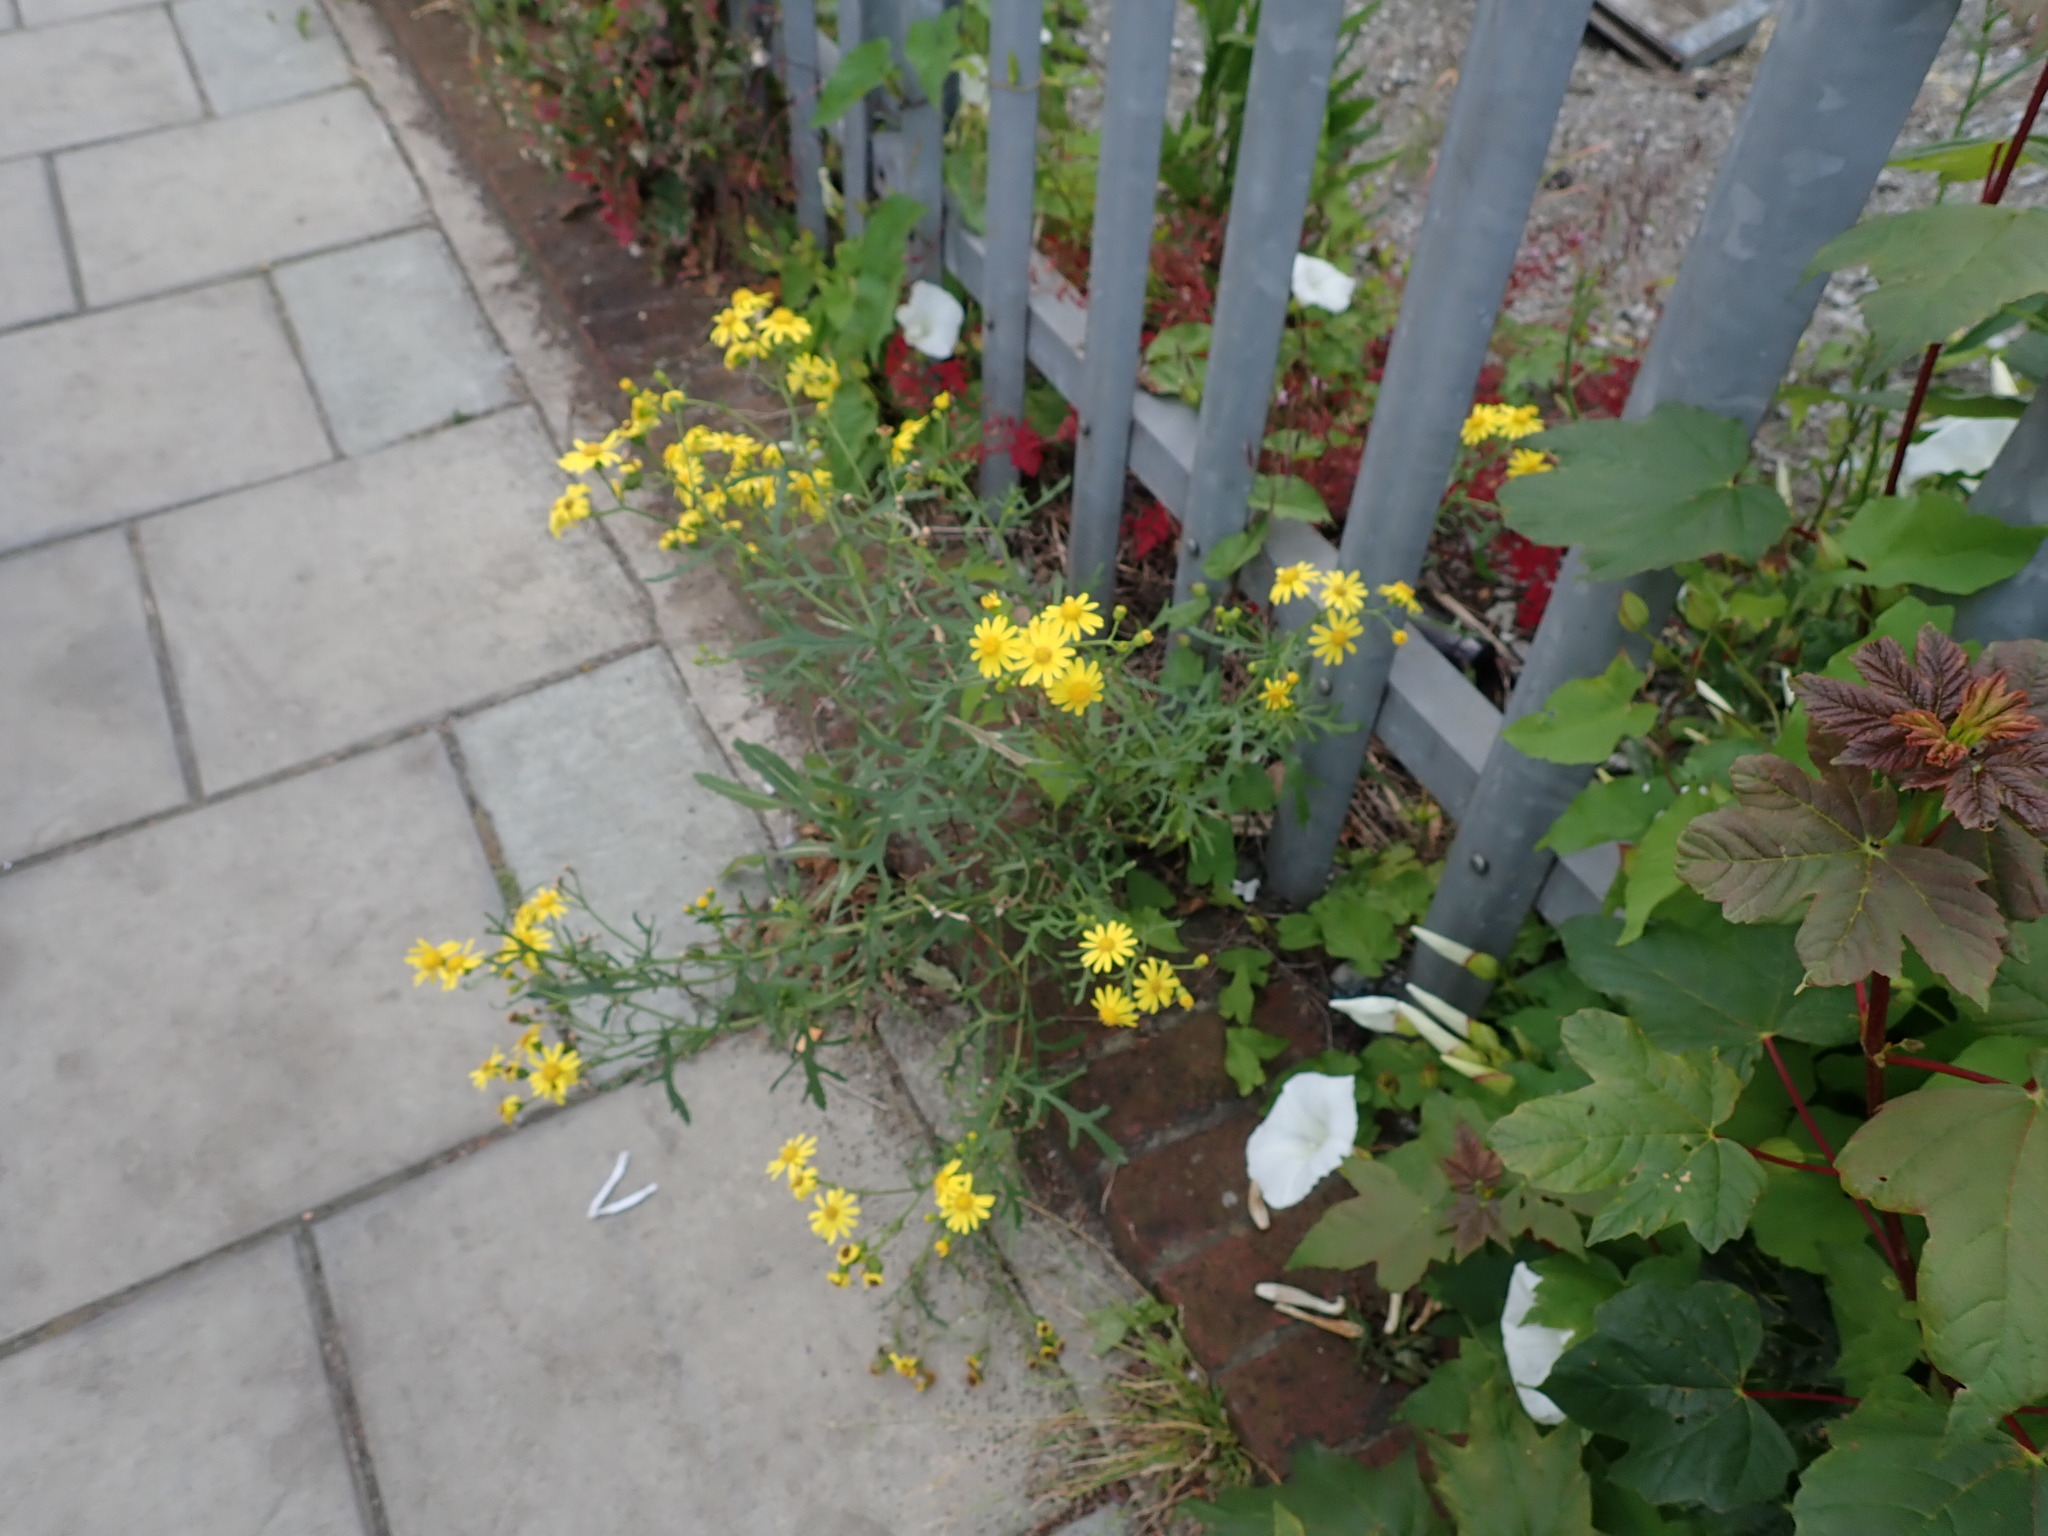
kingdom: Plantae
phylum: Tracheophyta
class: Magnoliopsida
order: Asterales
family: Asteraceae
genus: Senecio
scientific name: Senecio squalidus
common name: Oxford ragwort
